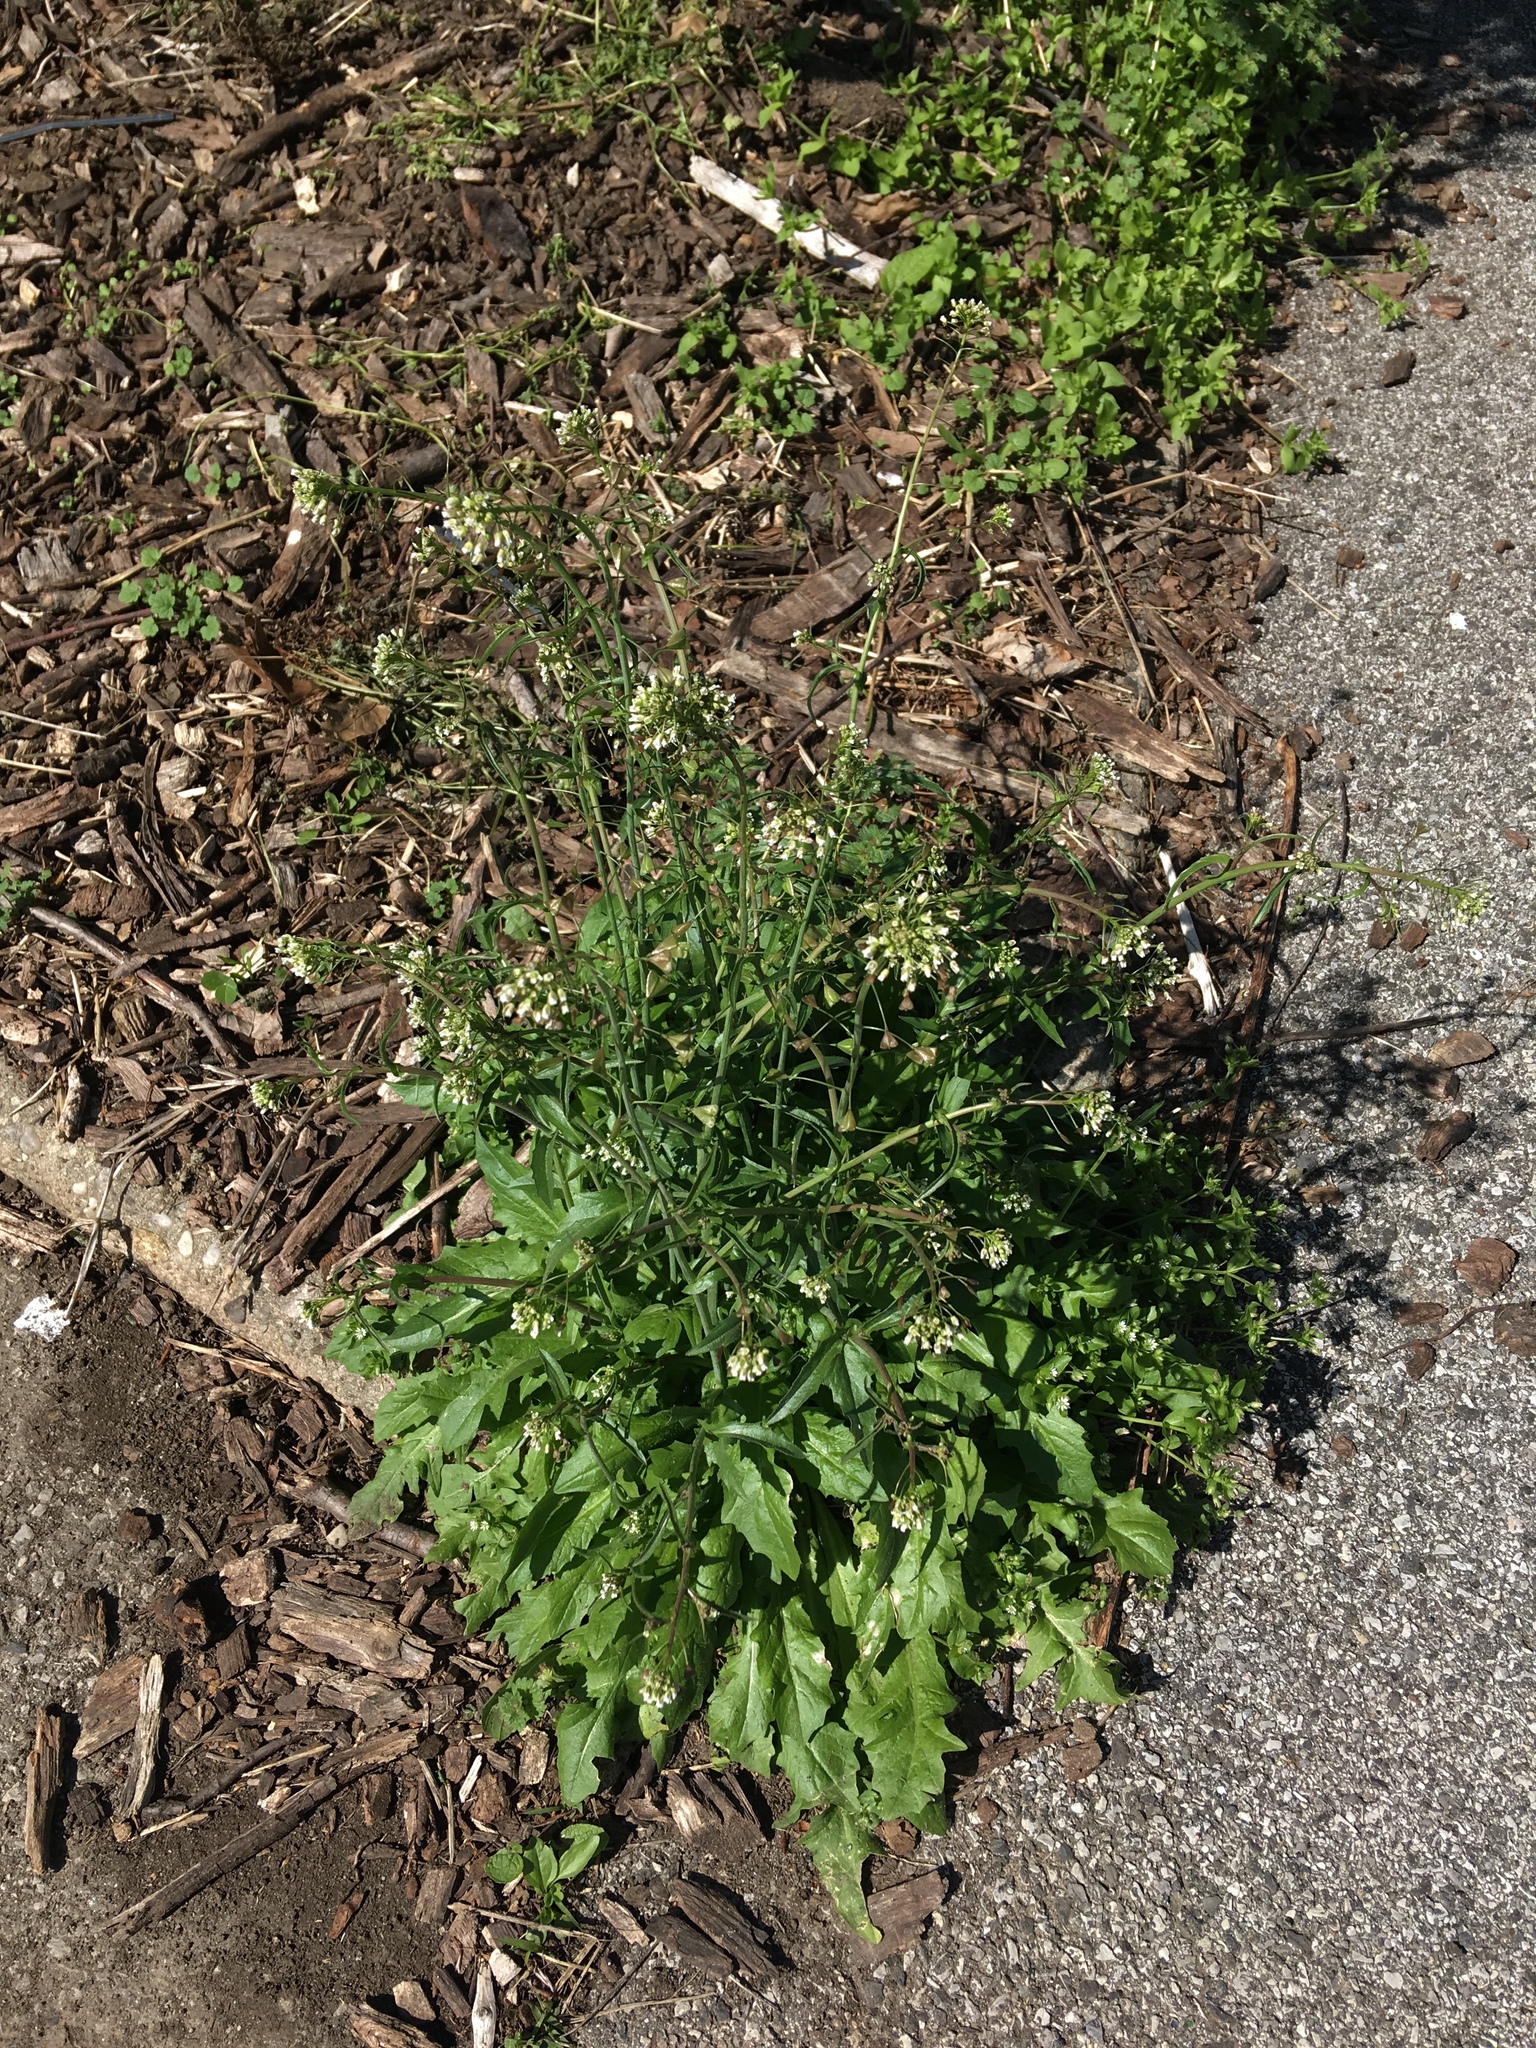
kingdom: Plantae
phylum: Tracheophyta
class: Magnoliopsida
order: Brassicales
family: Brassicaceae
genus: Capsella
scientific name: Capsella bursa-pastoris
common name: Shepherd's purse
